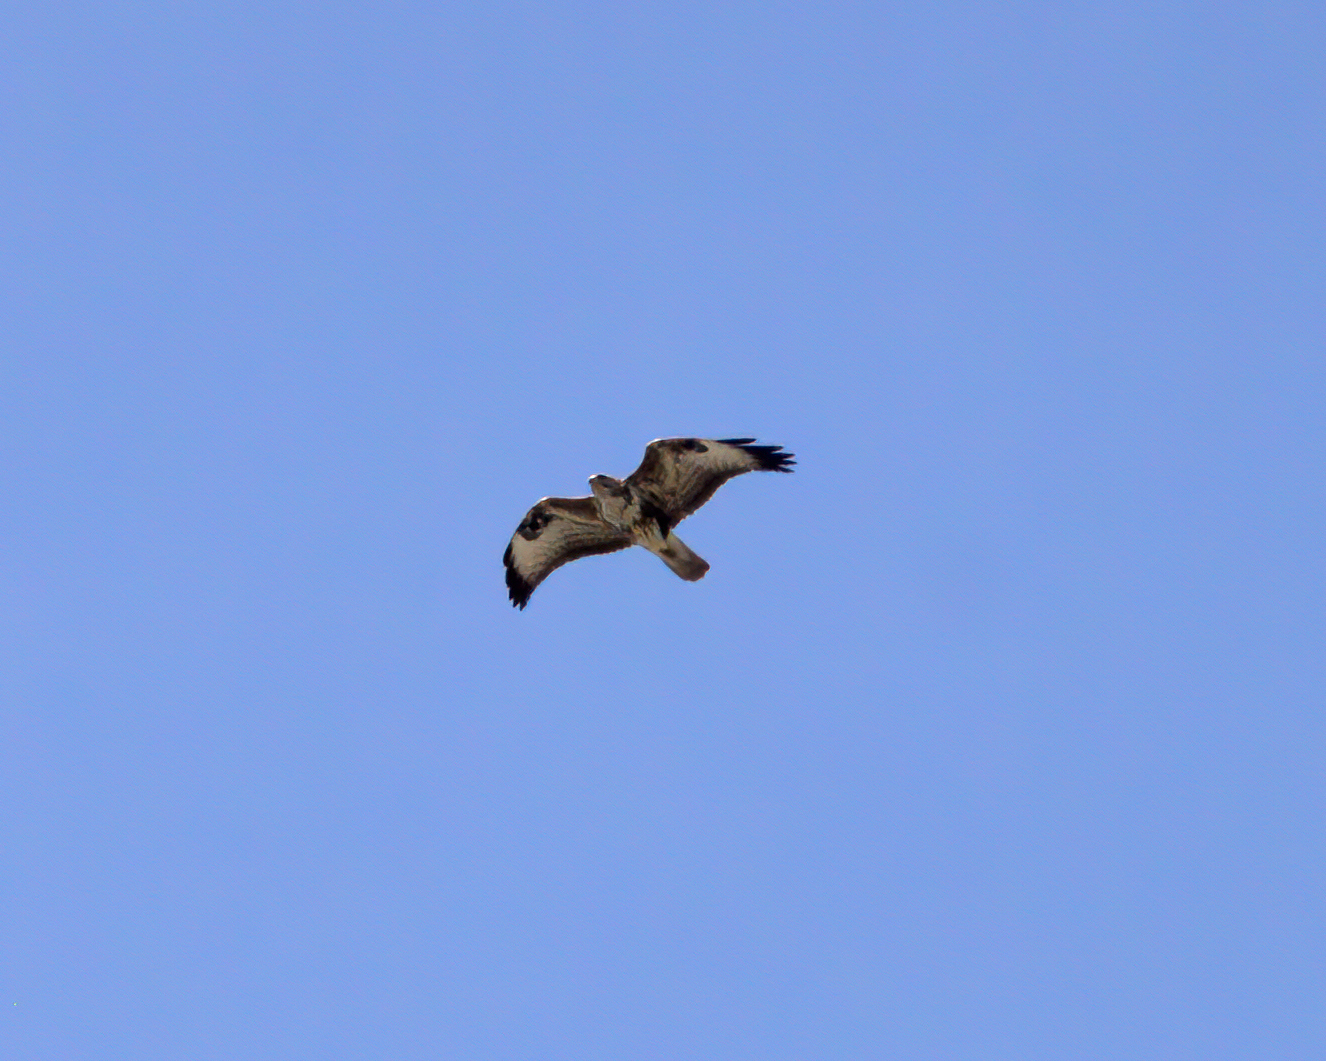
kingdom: Animalia
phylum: Chordata
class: Aves
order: Accipitriformes
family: Accipitridae
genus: Buteo
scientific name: Buteo buteo
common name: Common buzzard
